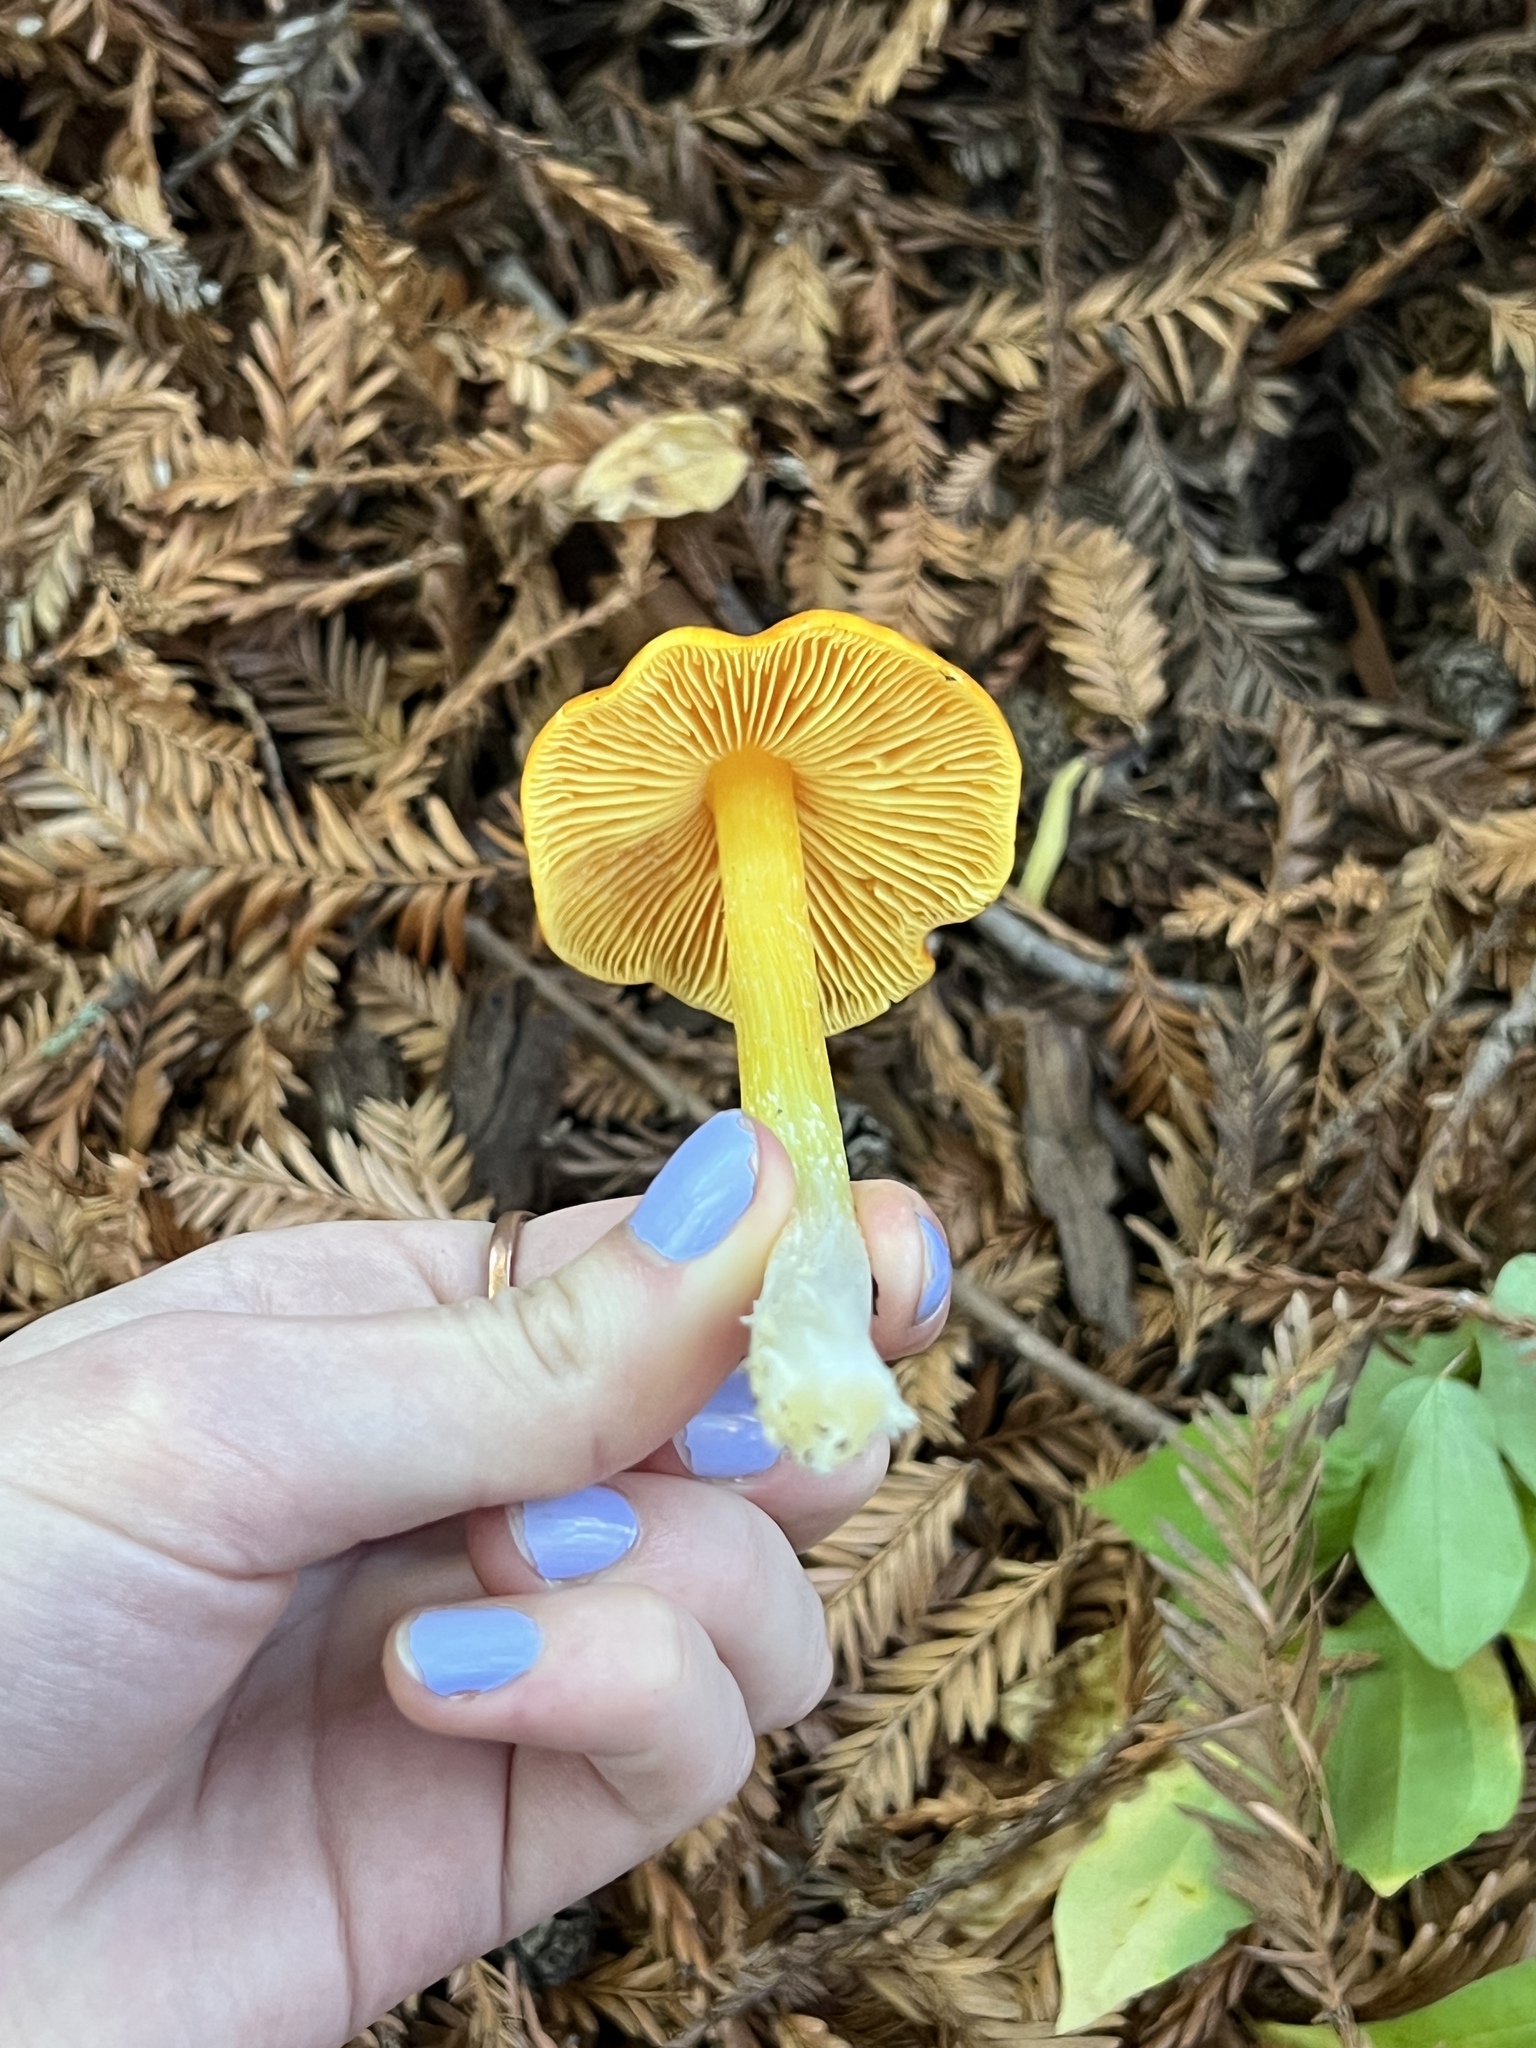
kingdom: Fungi
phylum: Basidiomycota
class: Agaricomycetes
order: Agaricales
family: Hygrophoraceae
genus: Hygrocybe
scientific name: Hygrocybe acutoconica
